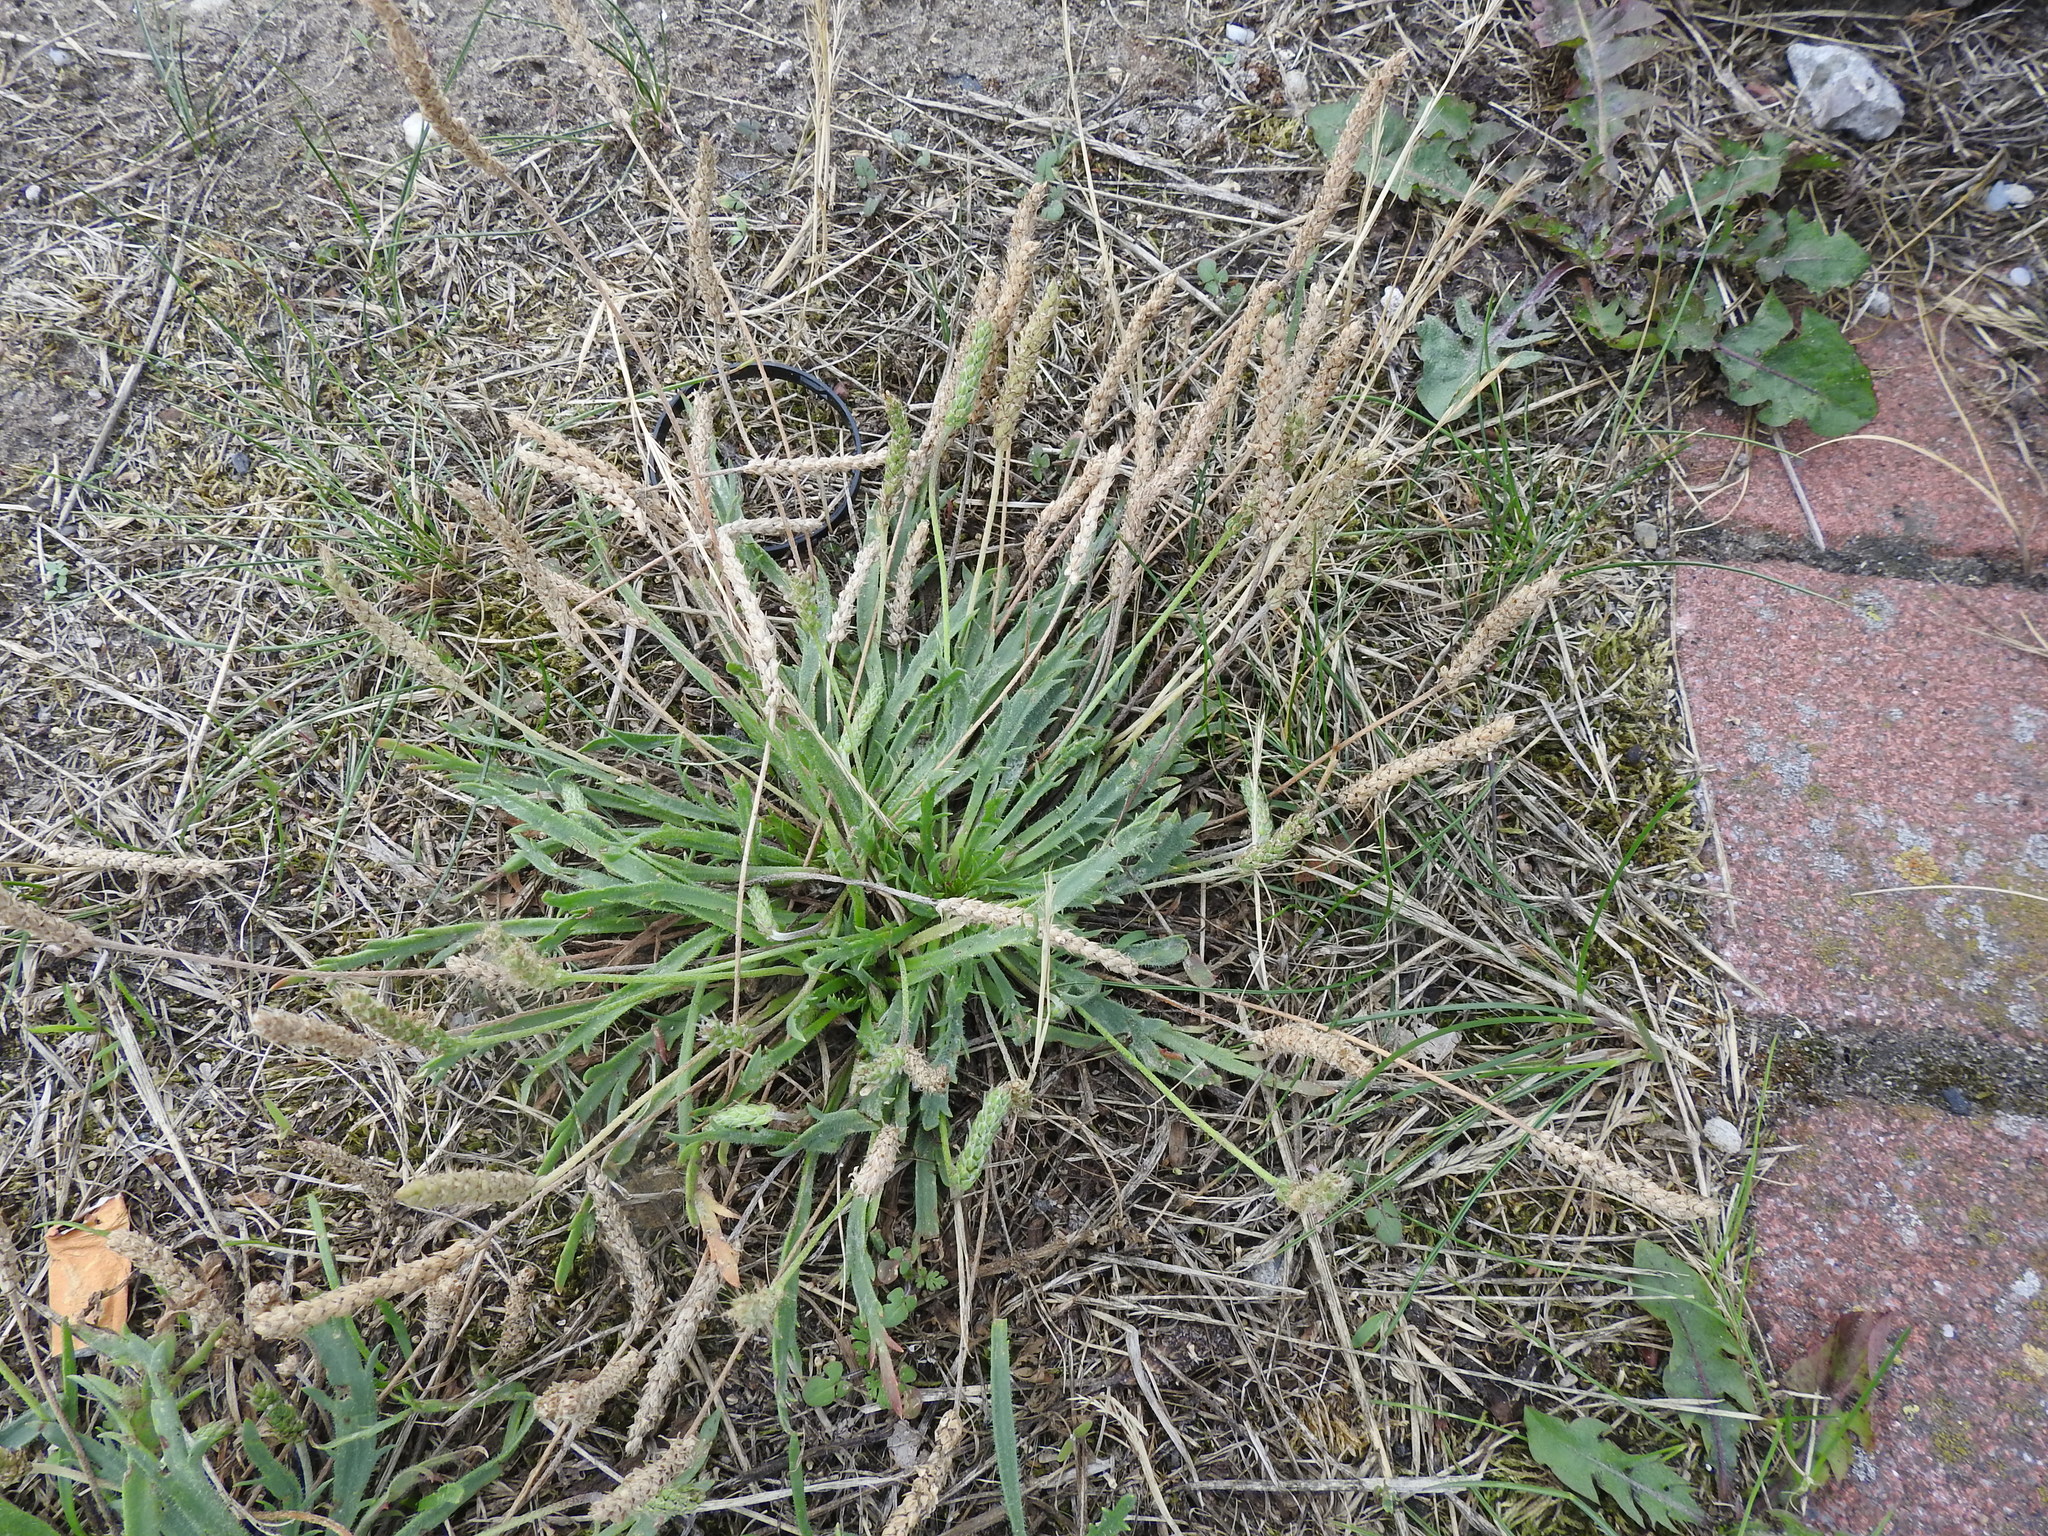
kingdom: Plantae
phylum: Tracheophyta
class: Magnoliopsida
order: Lamiales
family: Plantaginaceae
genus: Plantago
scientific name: Plantago coronopus
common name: Buck's-horn plantain
